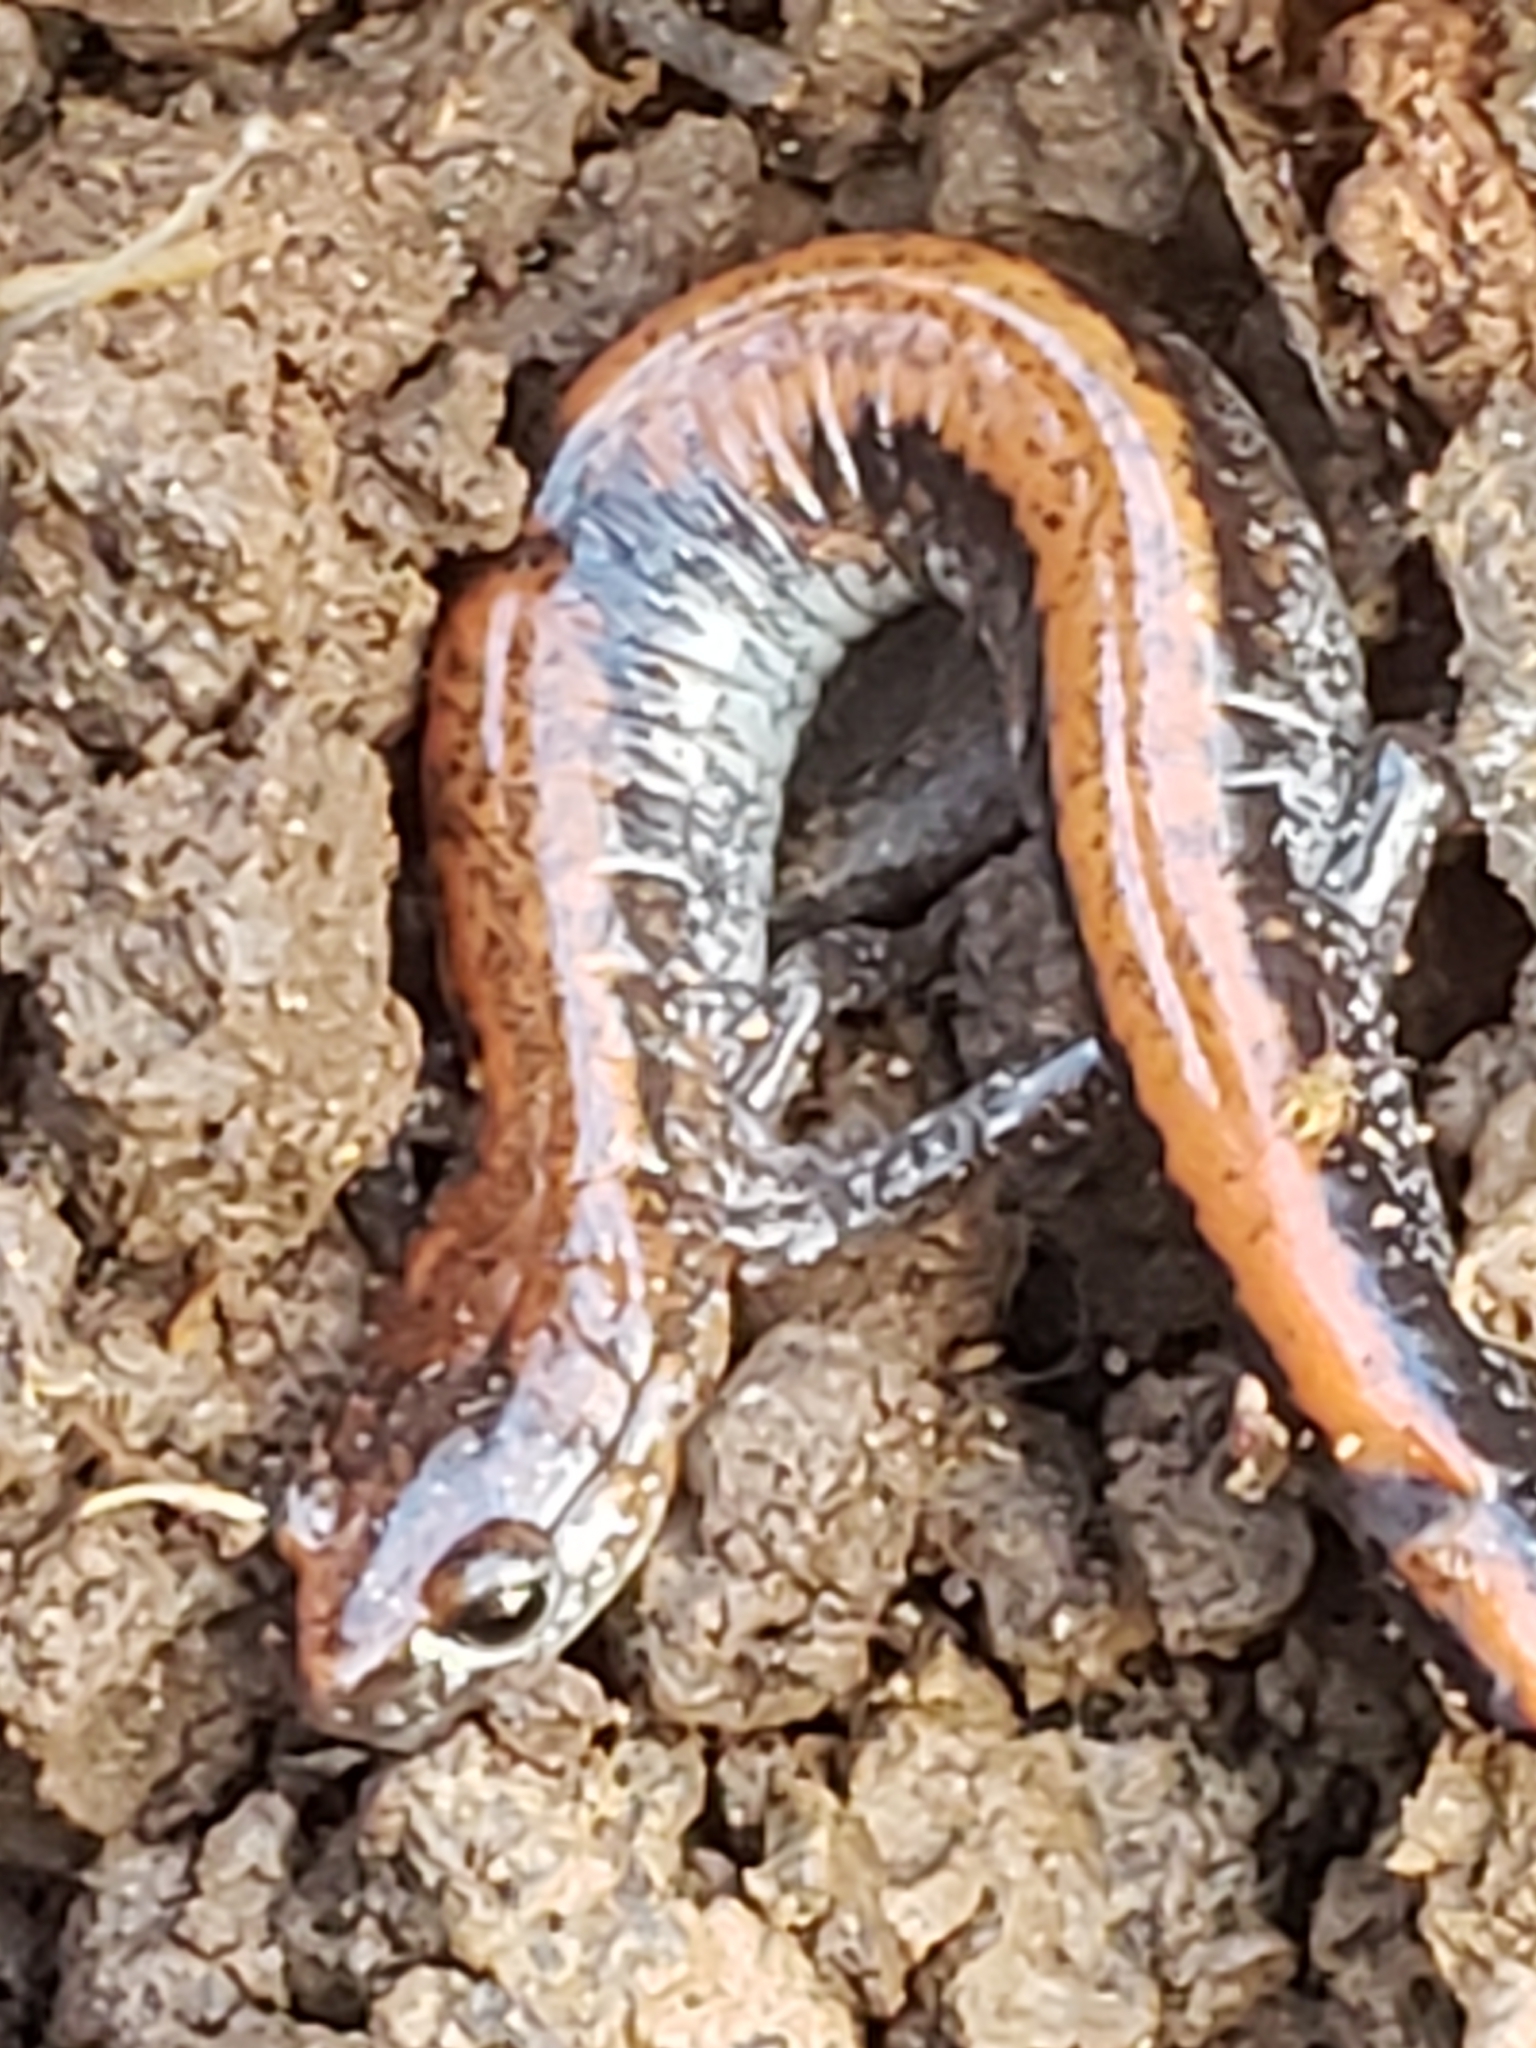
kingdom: Animalia
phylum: Chordata
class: Amphibia
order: Caudata
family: Plethodontidae
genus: Plethodon
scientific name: Plethodon cinereus
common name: Redback salamander
